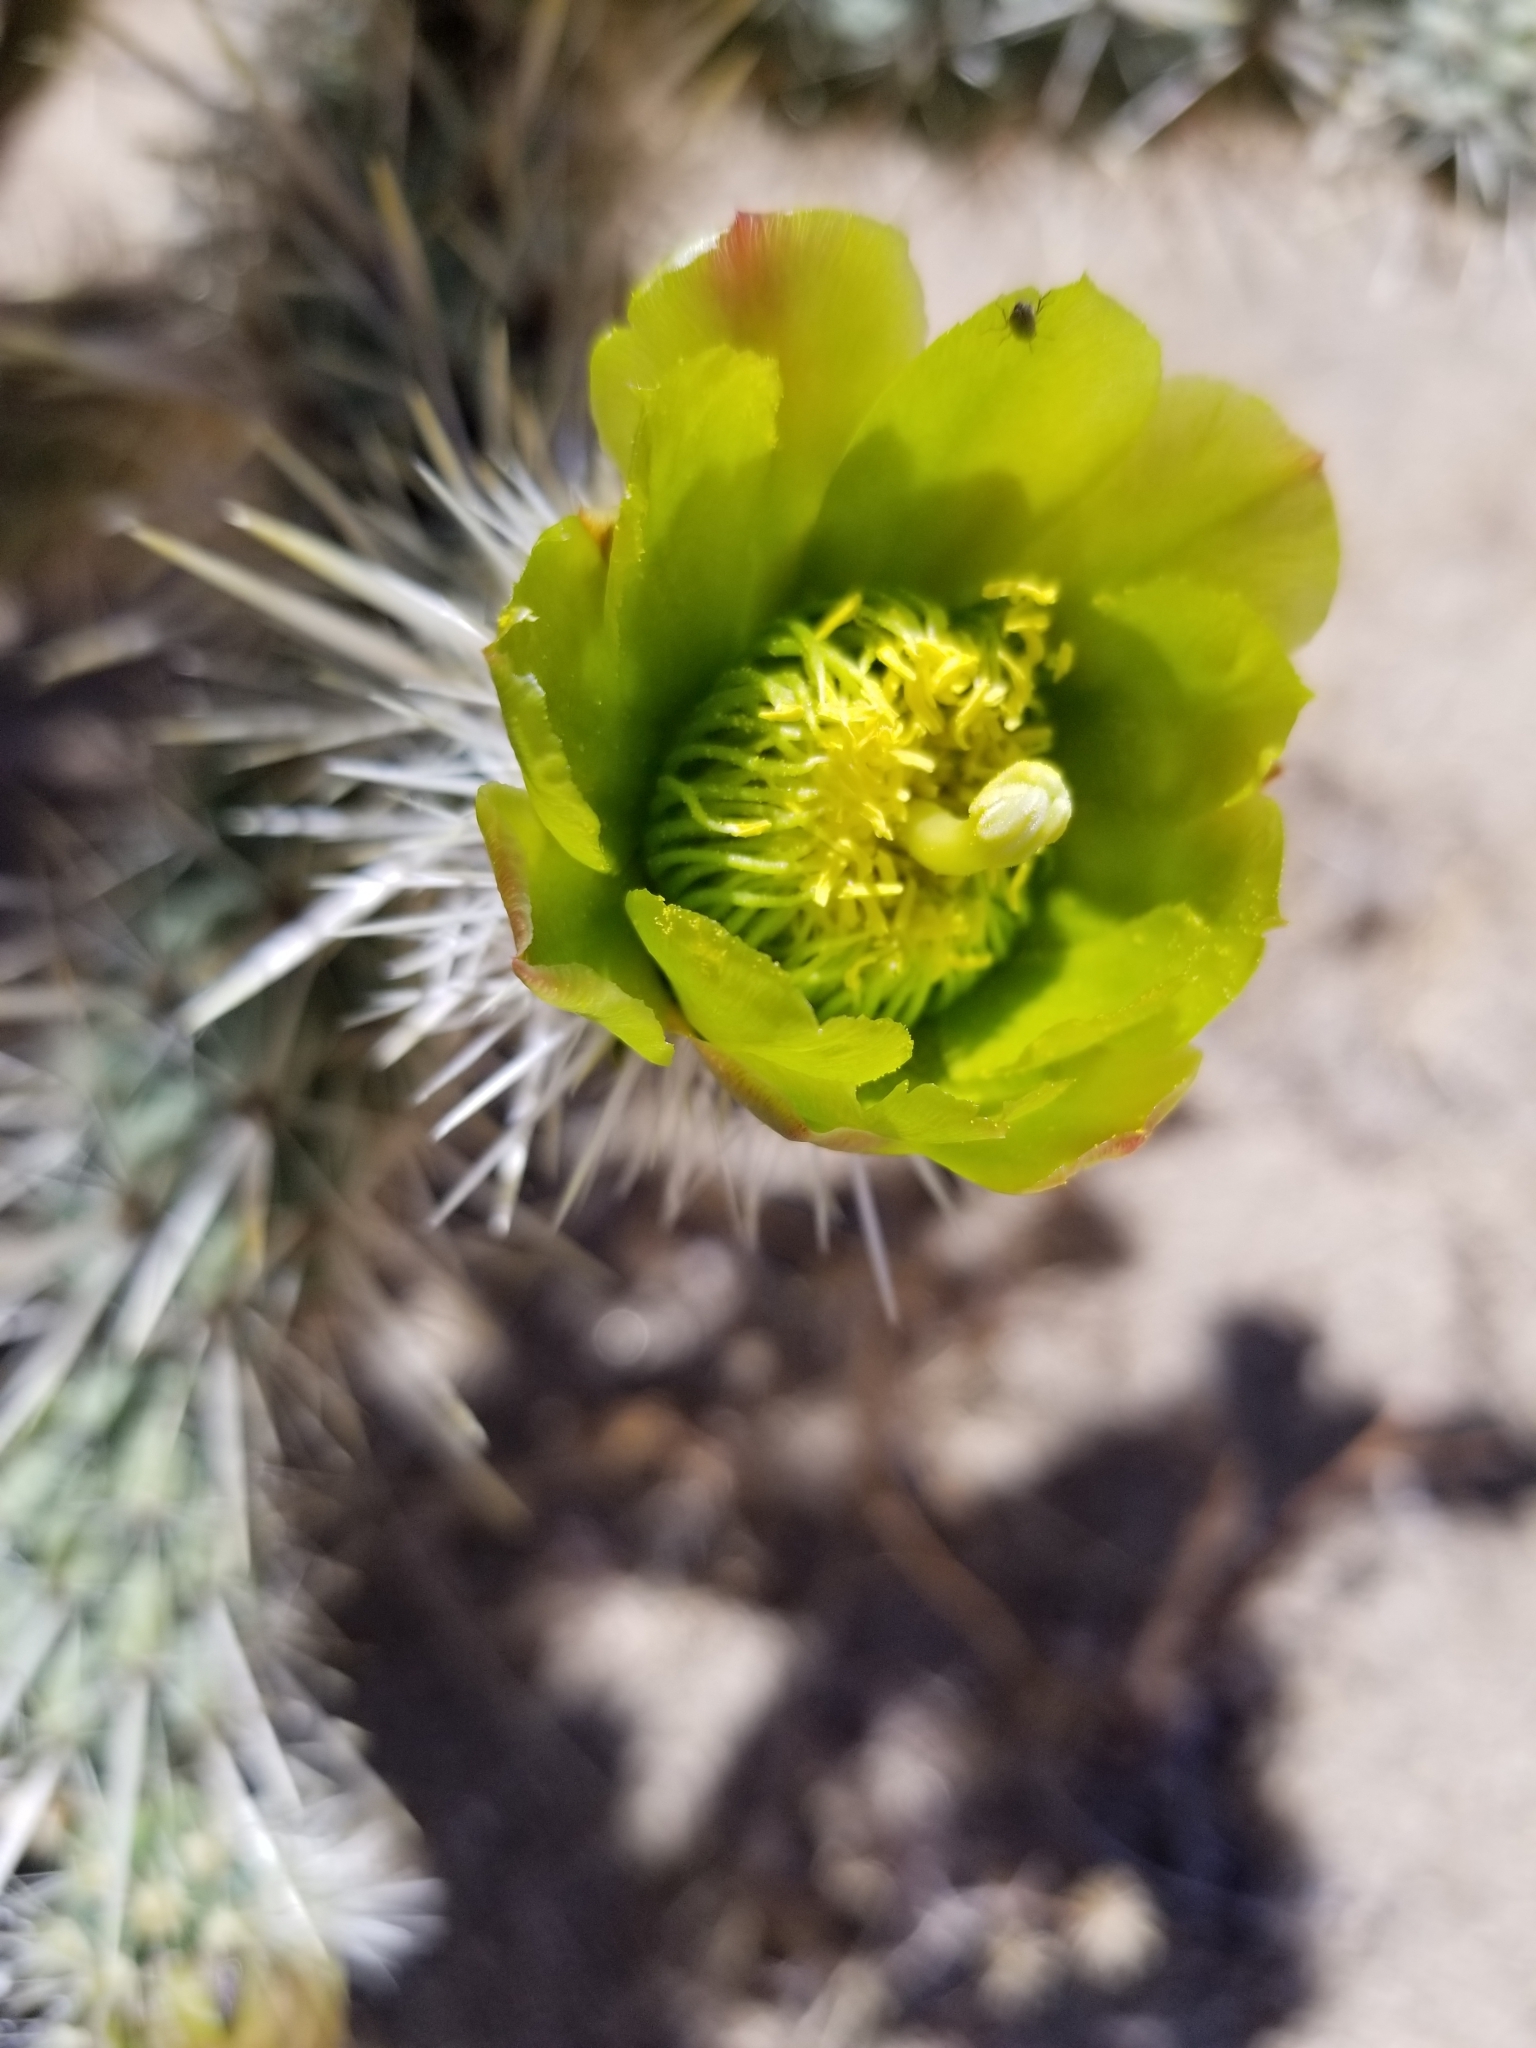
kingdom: Plantae
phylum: Tracheophyta
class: Magnoliopsida
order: Caryophyllales
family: Cactaceae
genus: Cylindropuntia
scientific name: Cylindropuntia echinocarpa
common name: Ground cholla
